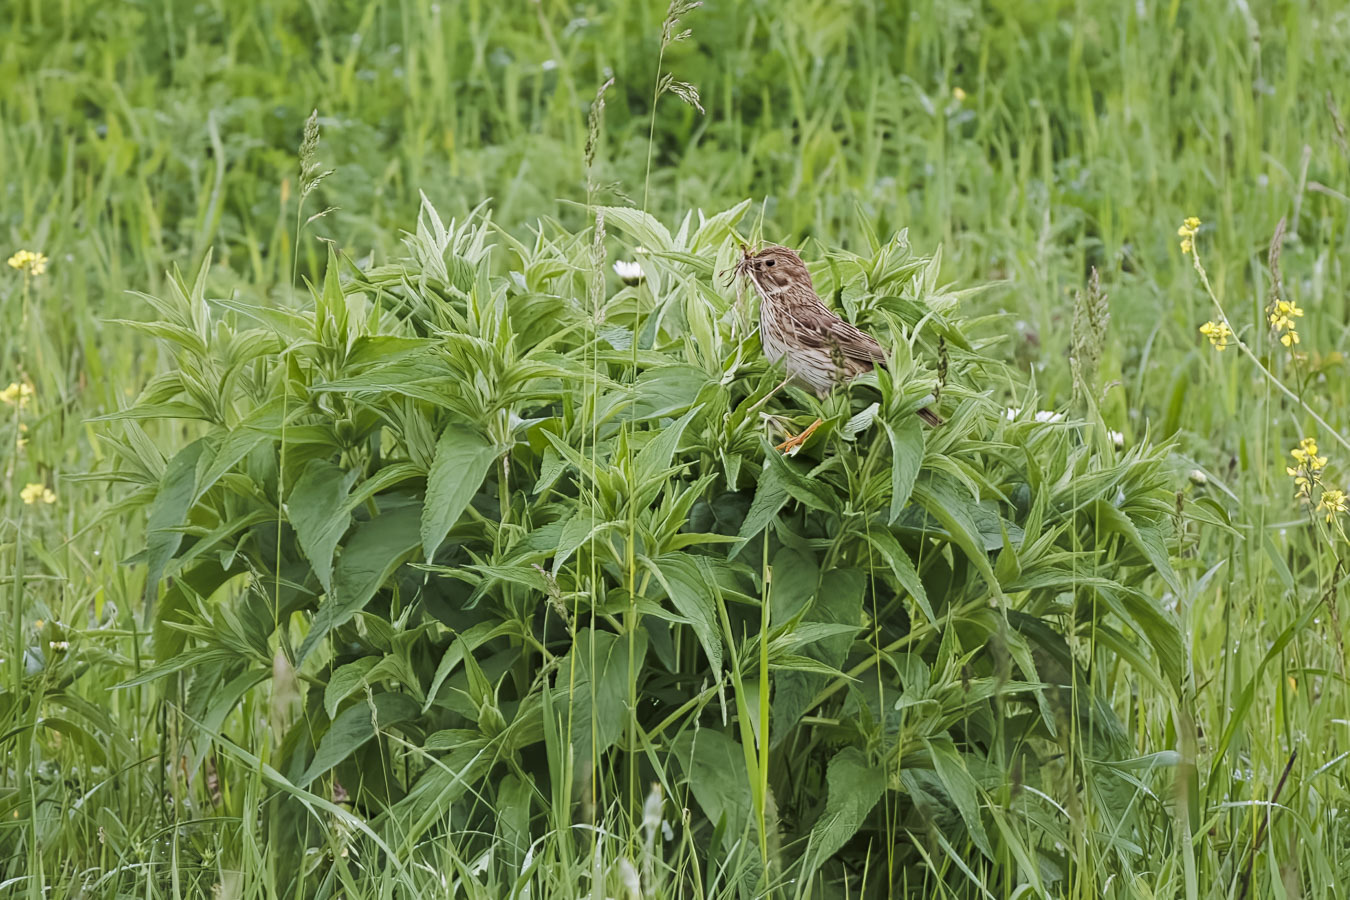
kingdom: Animalia
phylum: Chordata
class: Aves
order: Passeriformes
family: Emberizidae
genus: Emberiza
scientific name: Emberiza calandra
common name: Corn bunting
